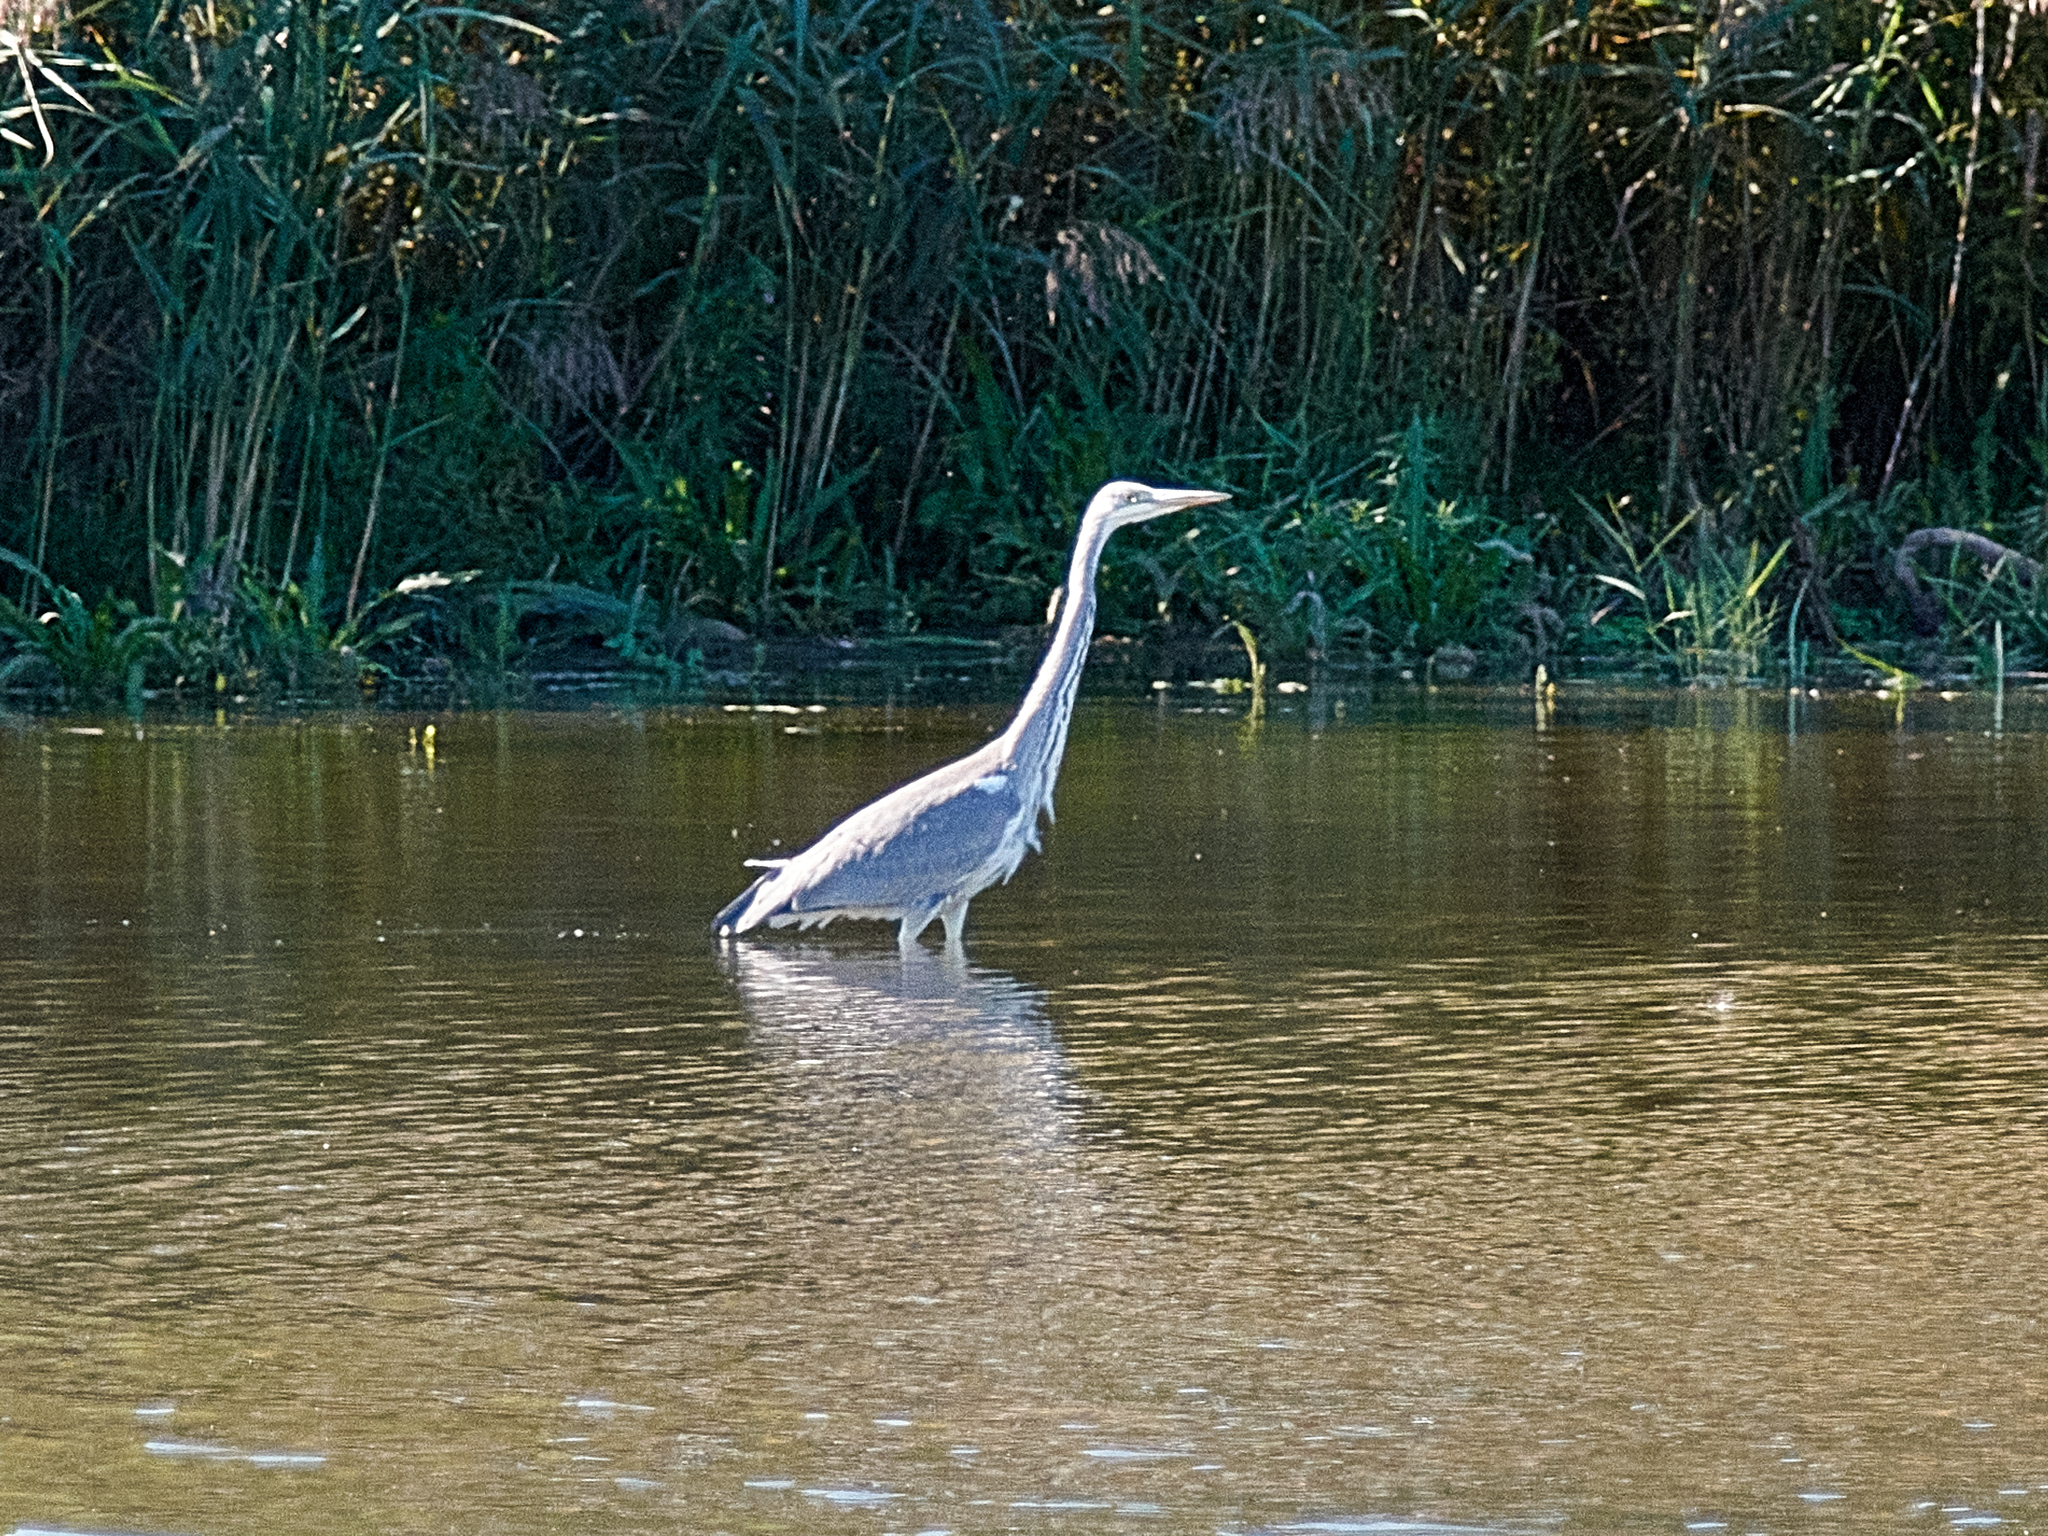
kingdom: Animalia
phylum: Chordata
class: Aves
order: Pelecaniformes
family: Ardeidae
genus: Ardea
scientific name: Ardea cinerea
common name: Grey heron
